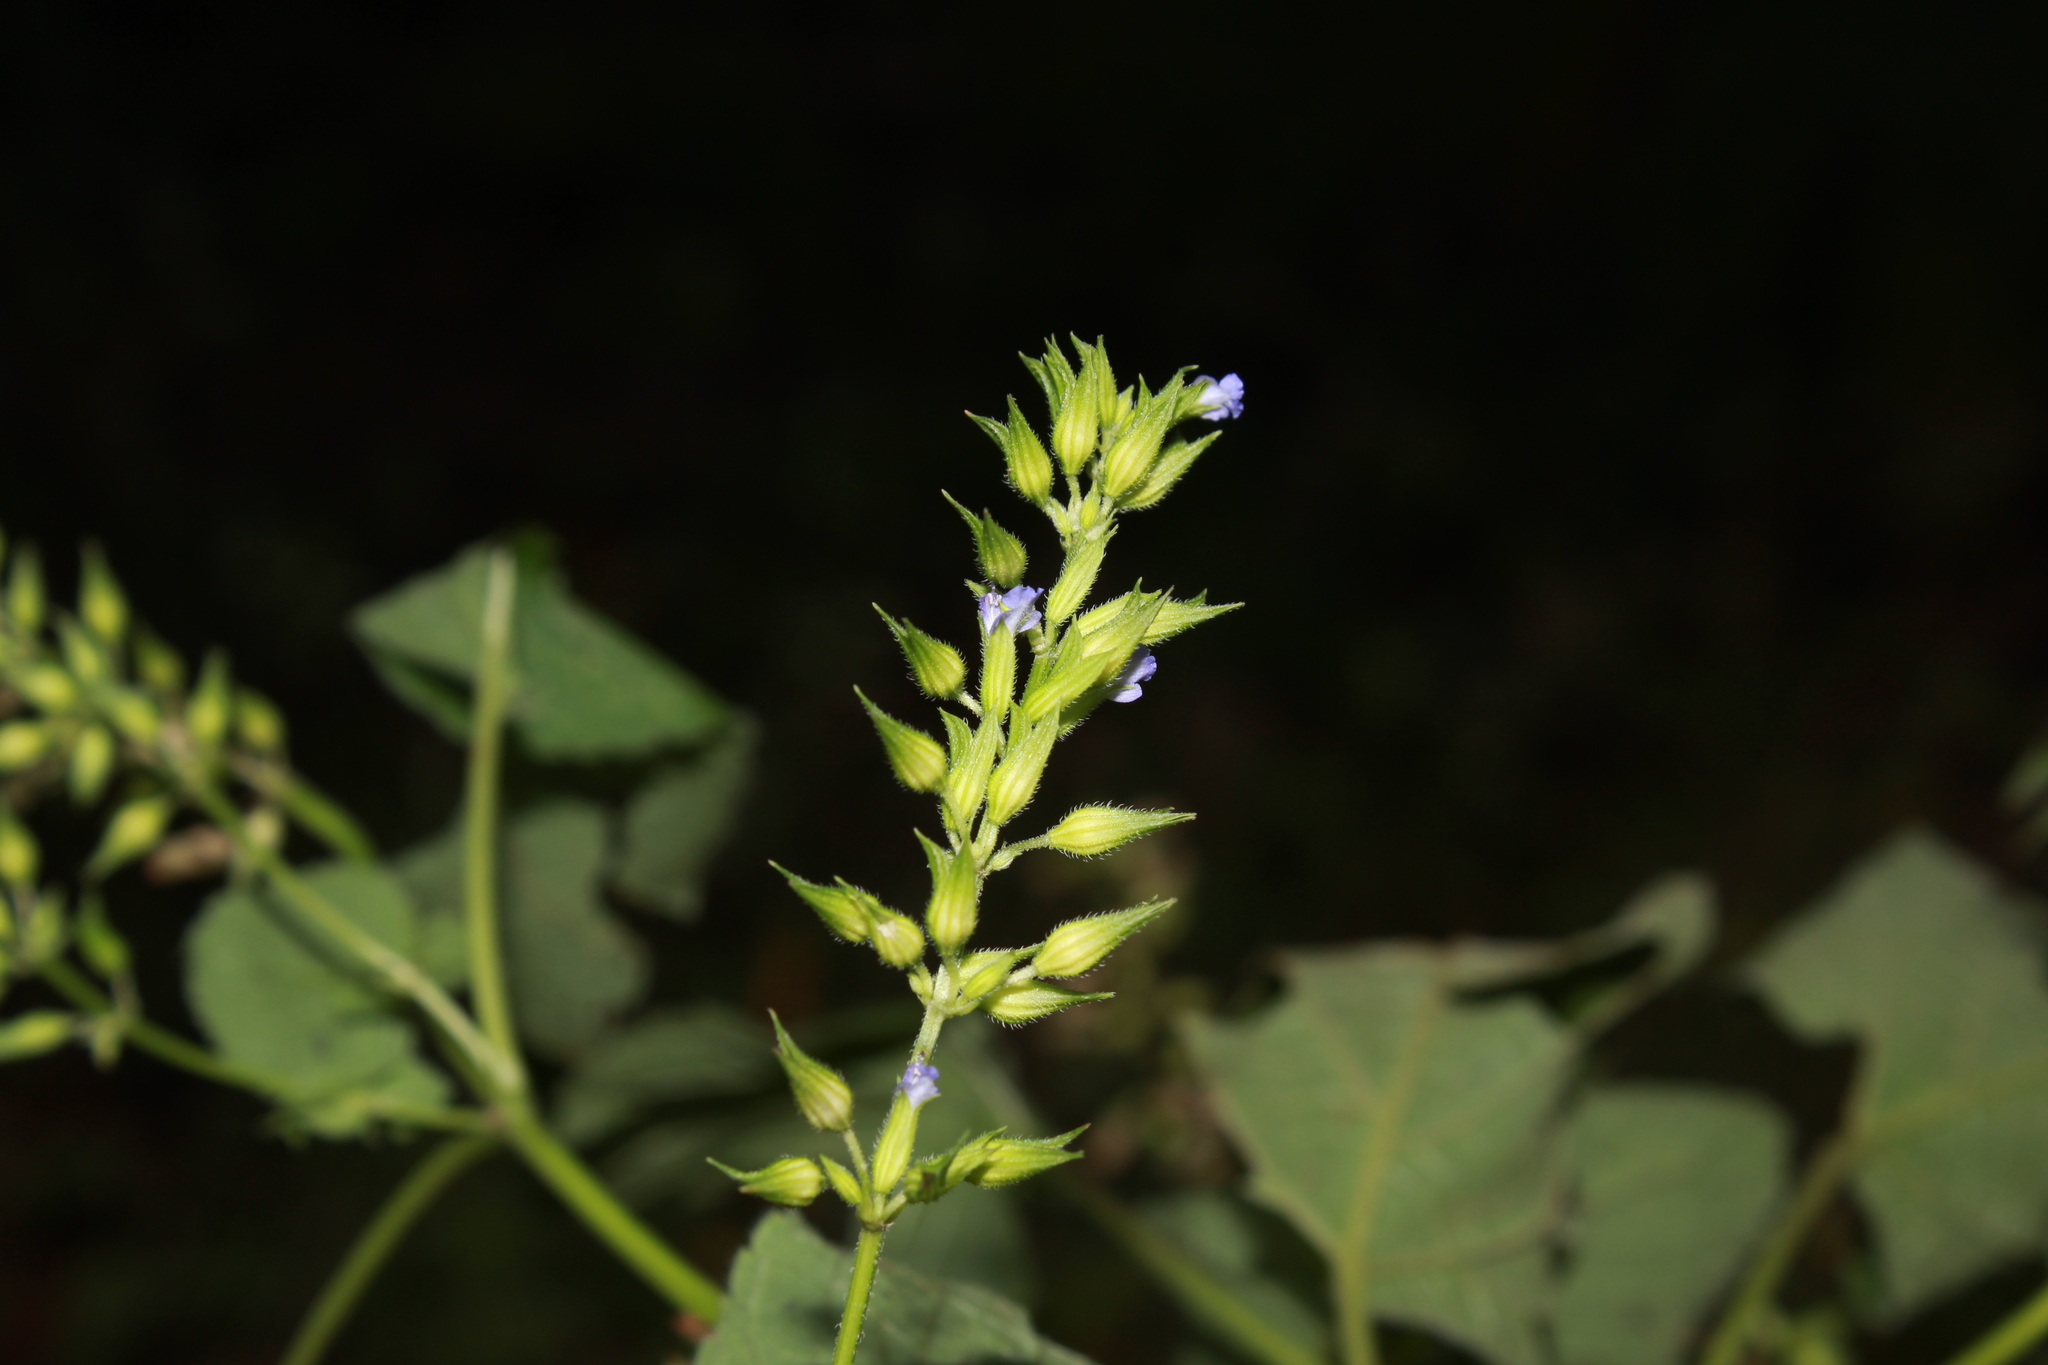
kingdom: Plantae
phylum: Tracheophyta
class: Magnoliopsida
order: Lamiales
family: Lamiaceae
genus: Salvia
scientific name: Salvia tiliifolia
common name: Lindenleaf sage
